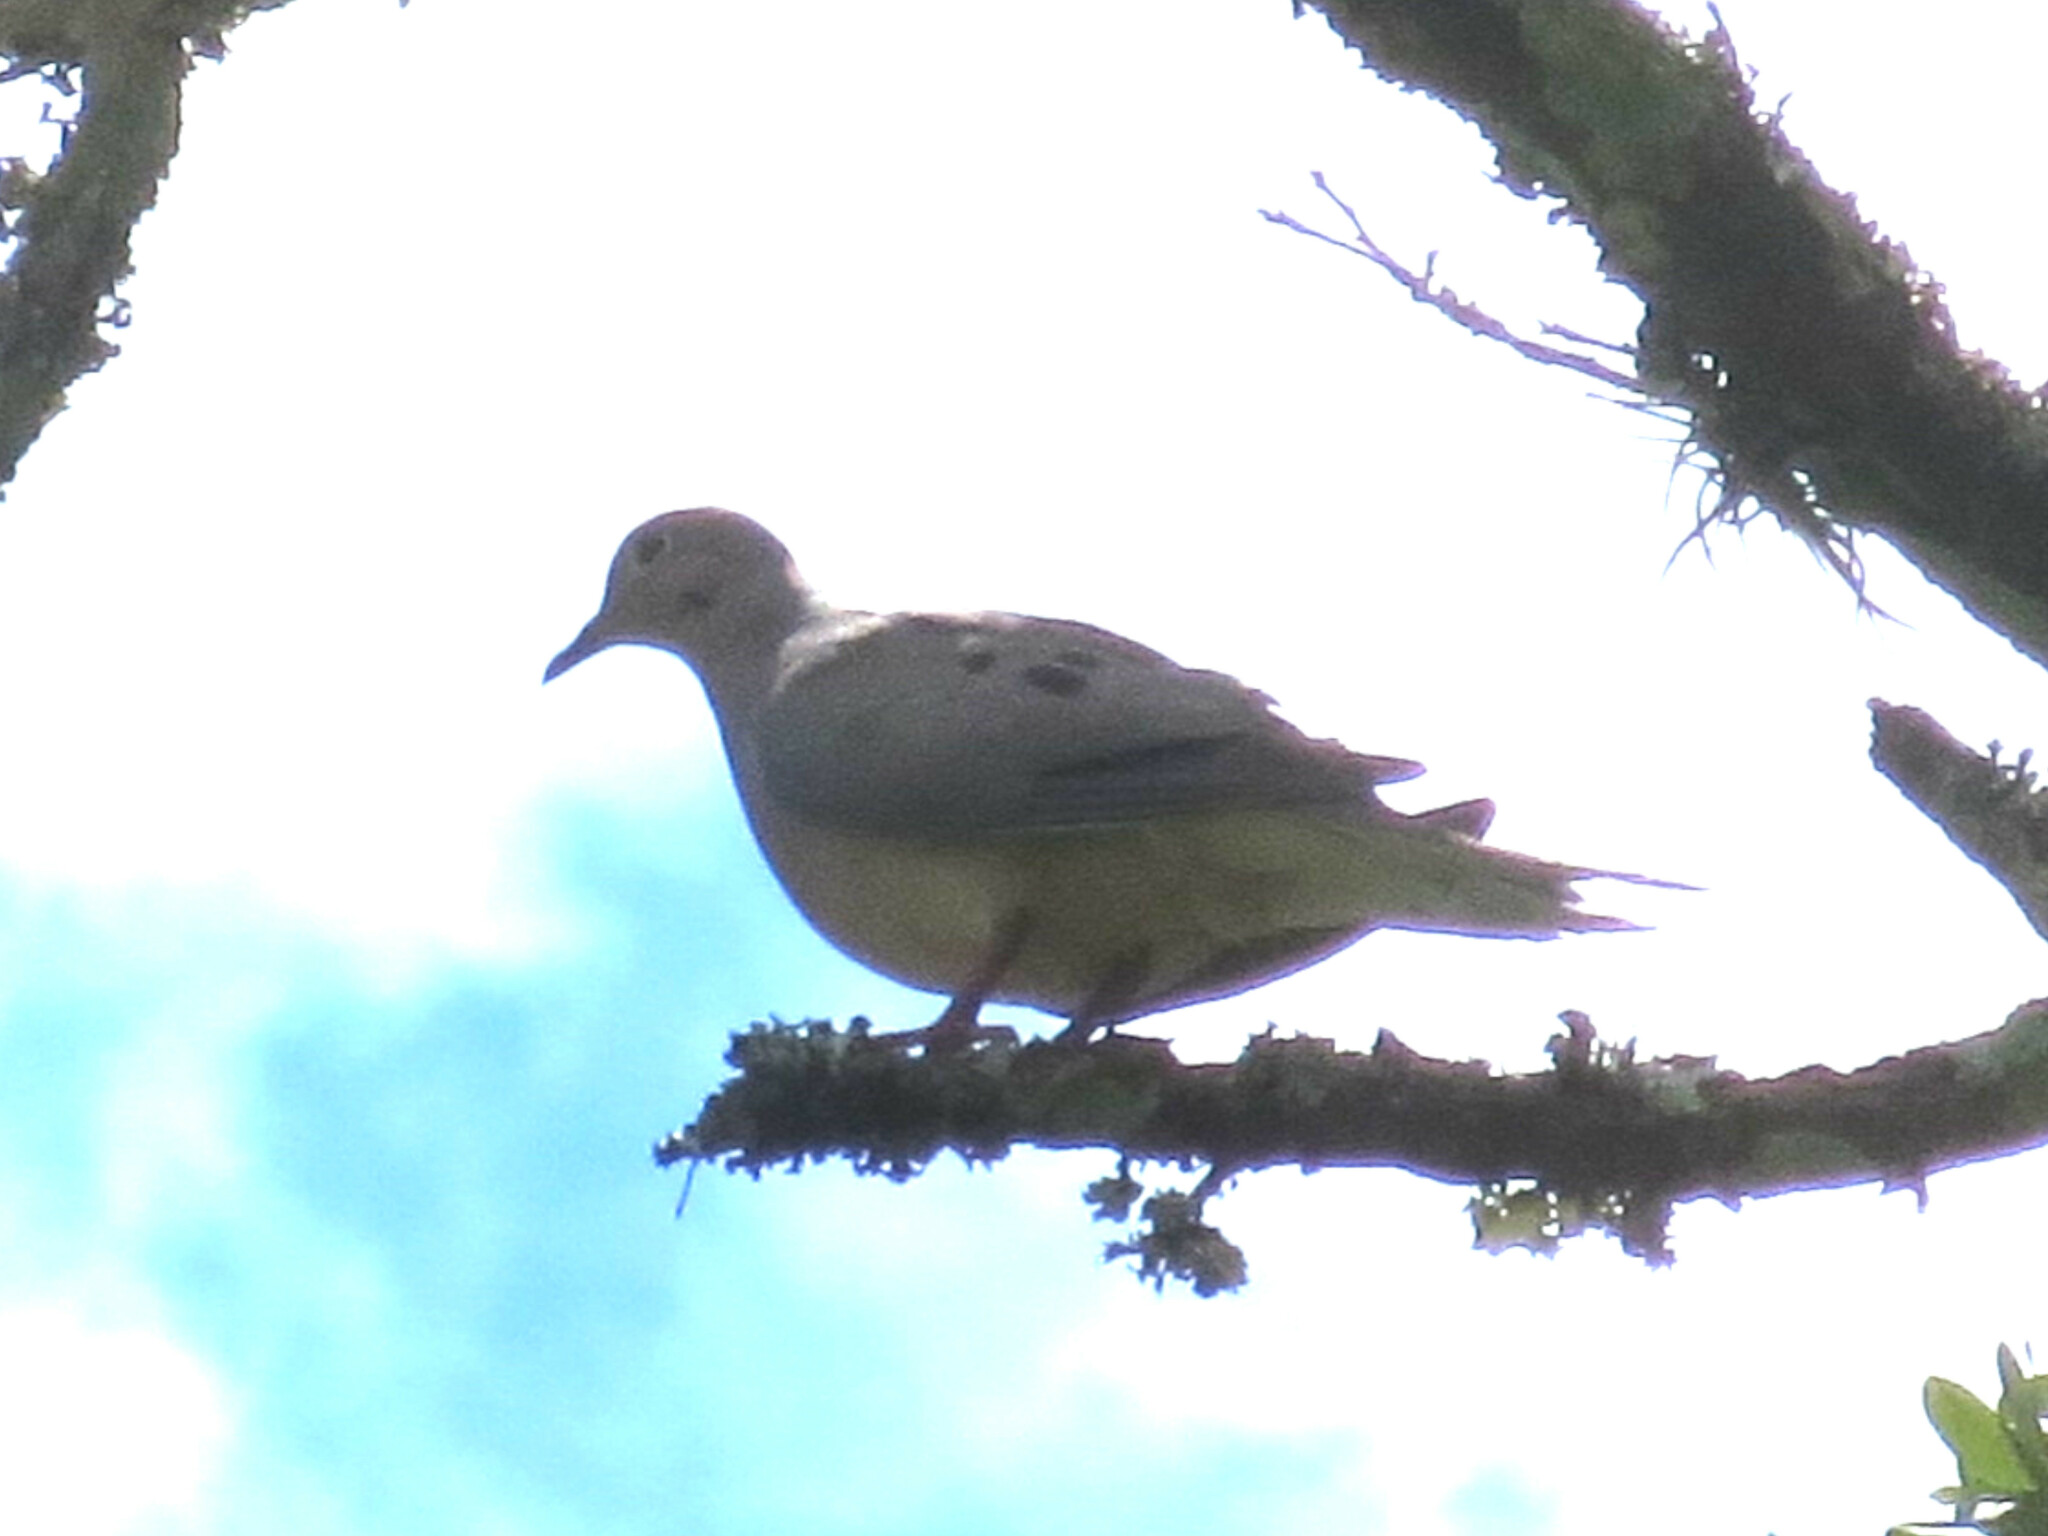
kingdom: Animalia
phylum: Chordata
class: Aves
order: Columbiformes
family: Columbidae
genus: Zenaida
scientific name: Zenaida macroura
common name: Mourning dove
